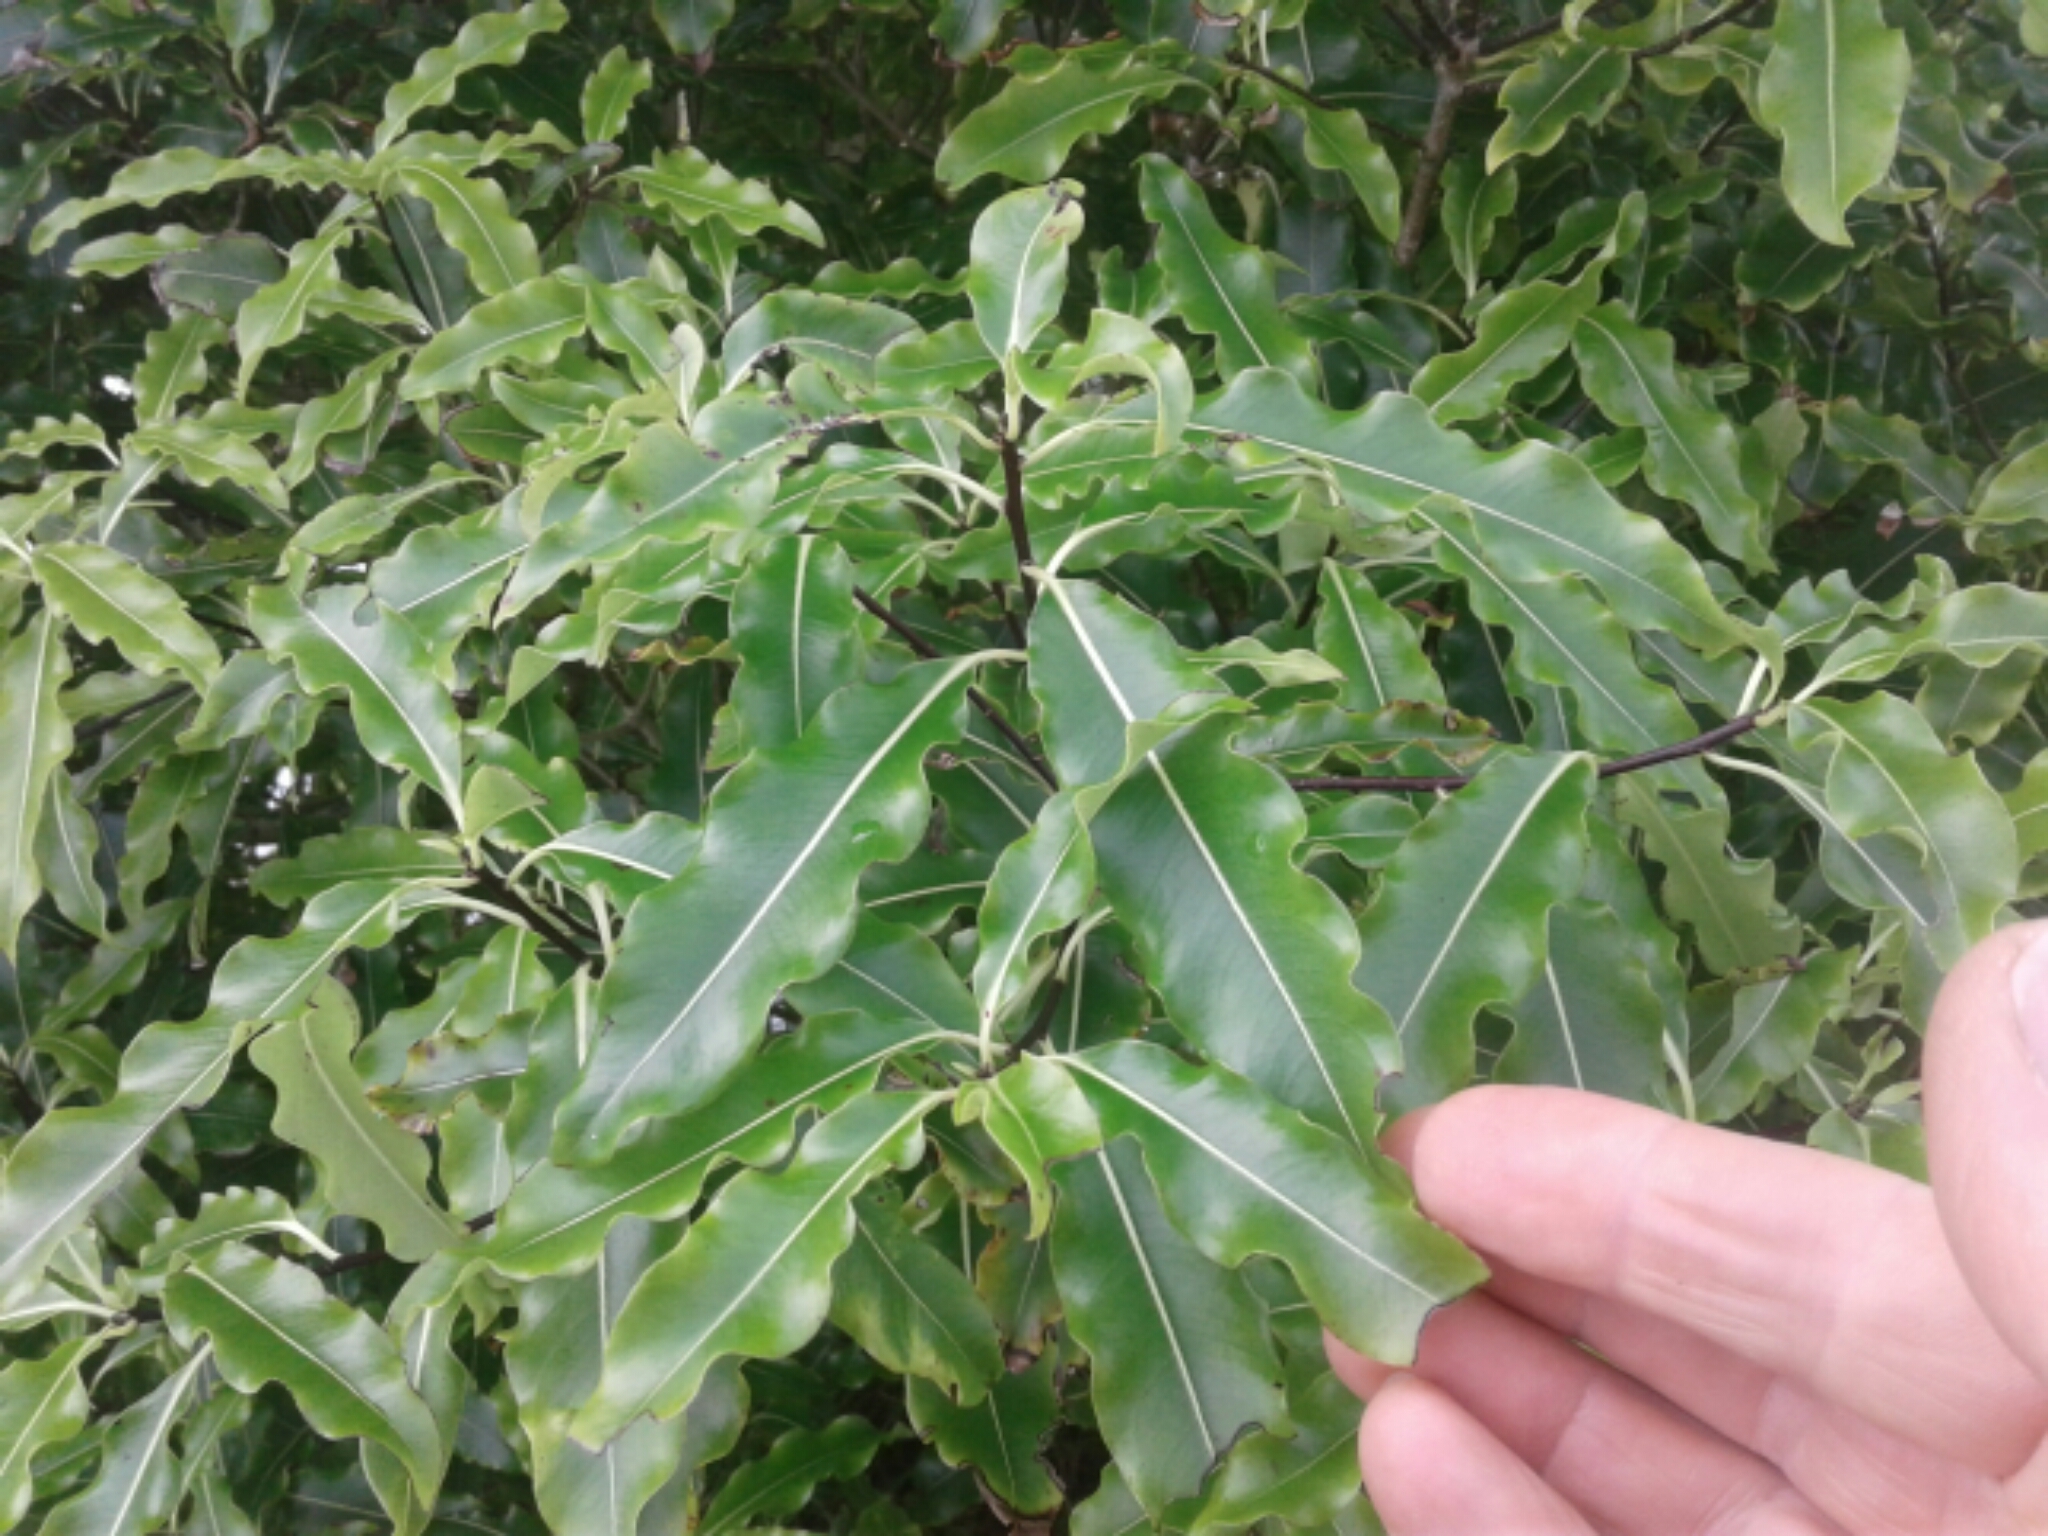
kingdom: Plantae
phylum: Tracheophyta
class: Magnoliopsida
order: Apiales
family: Pittosporaceae
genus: Pittosporum
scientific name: Pittosporum eugenioides
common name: Lemonwood
